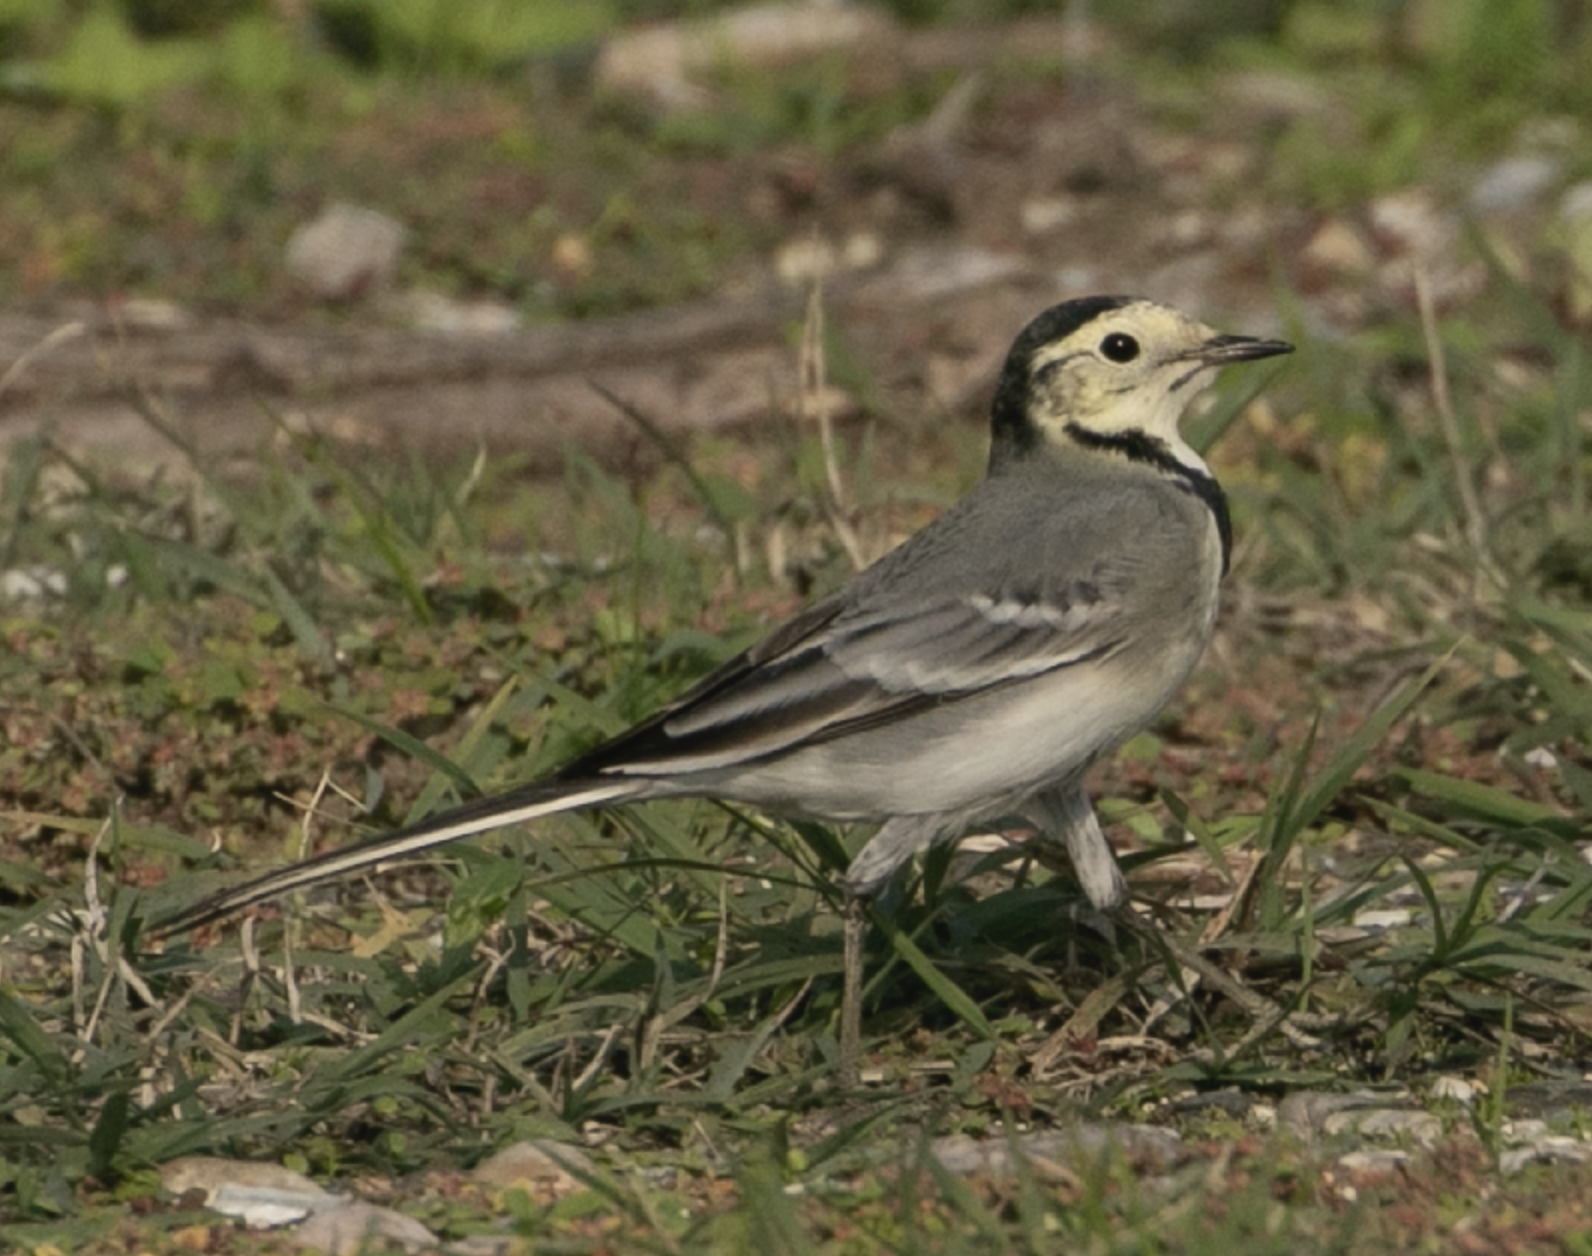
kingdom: Animalia
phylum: Chordata
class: Aves
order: Passeriformes
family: Motacillidae
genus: Motacilla
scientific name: Motacilla alba
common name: White wagtail
